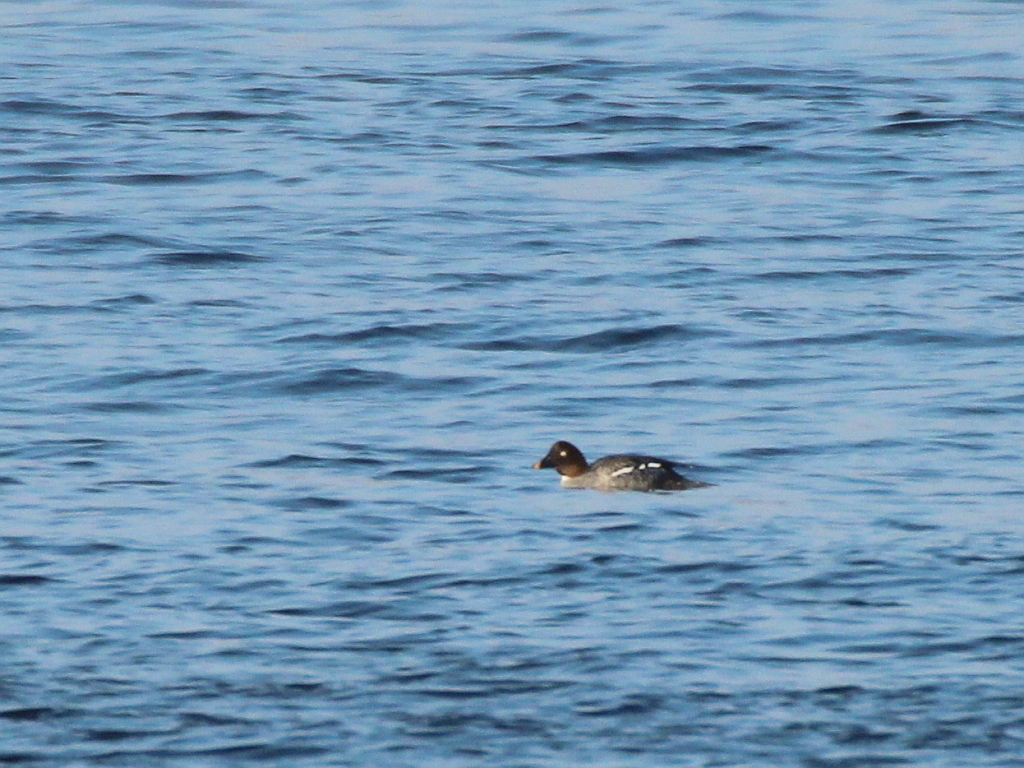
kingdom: Animalia
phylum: Chordata
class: Aves
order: Anseriformes
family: Anatidae
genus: Bucephala
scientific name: Bucephala clangula
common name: Common goldeneye
